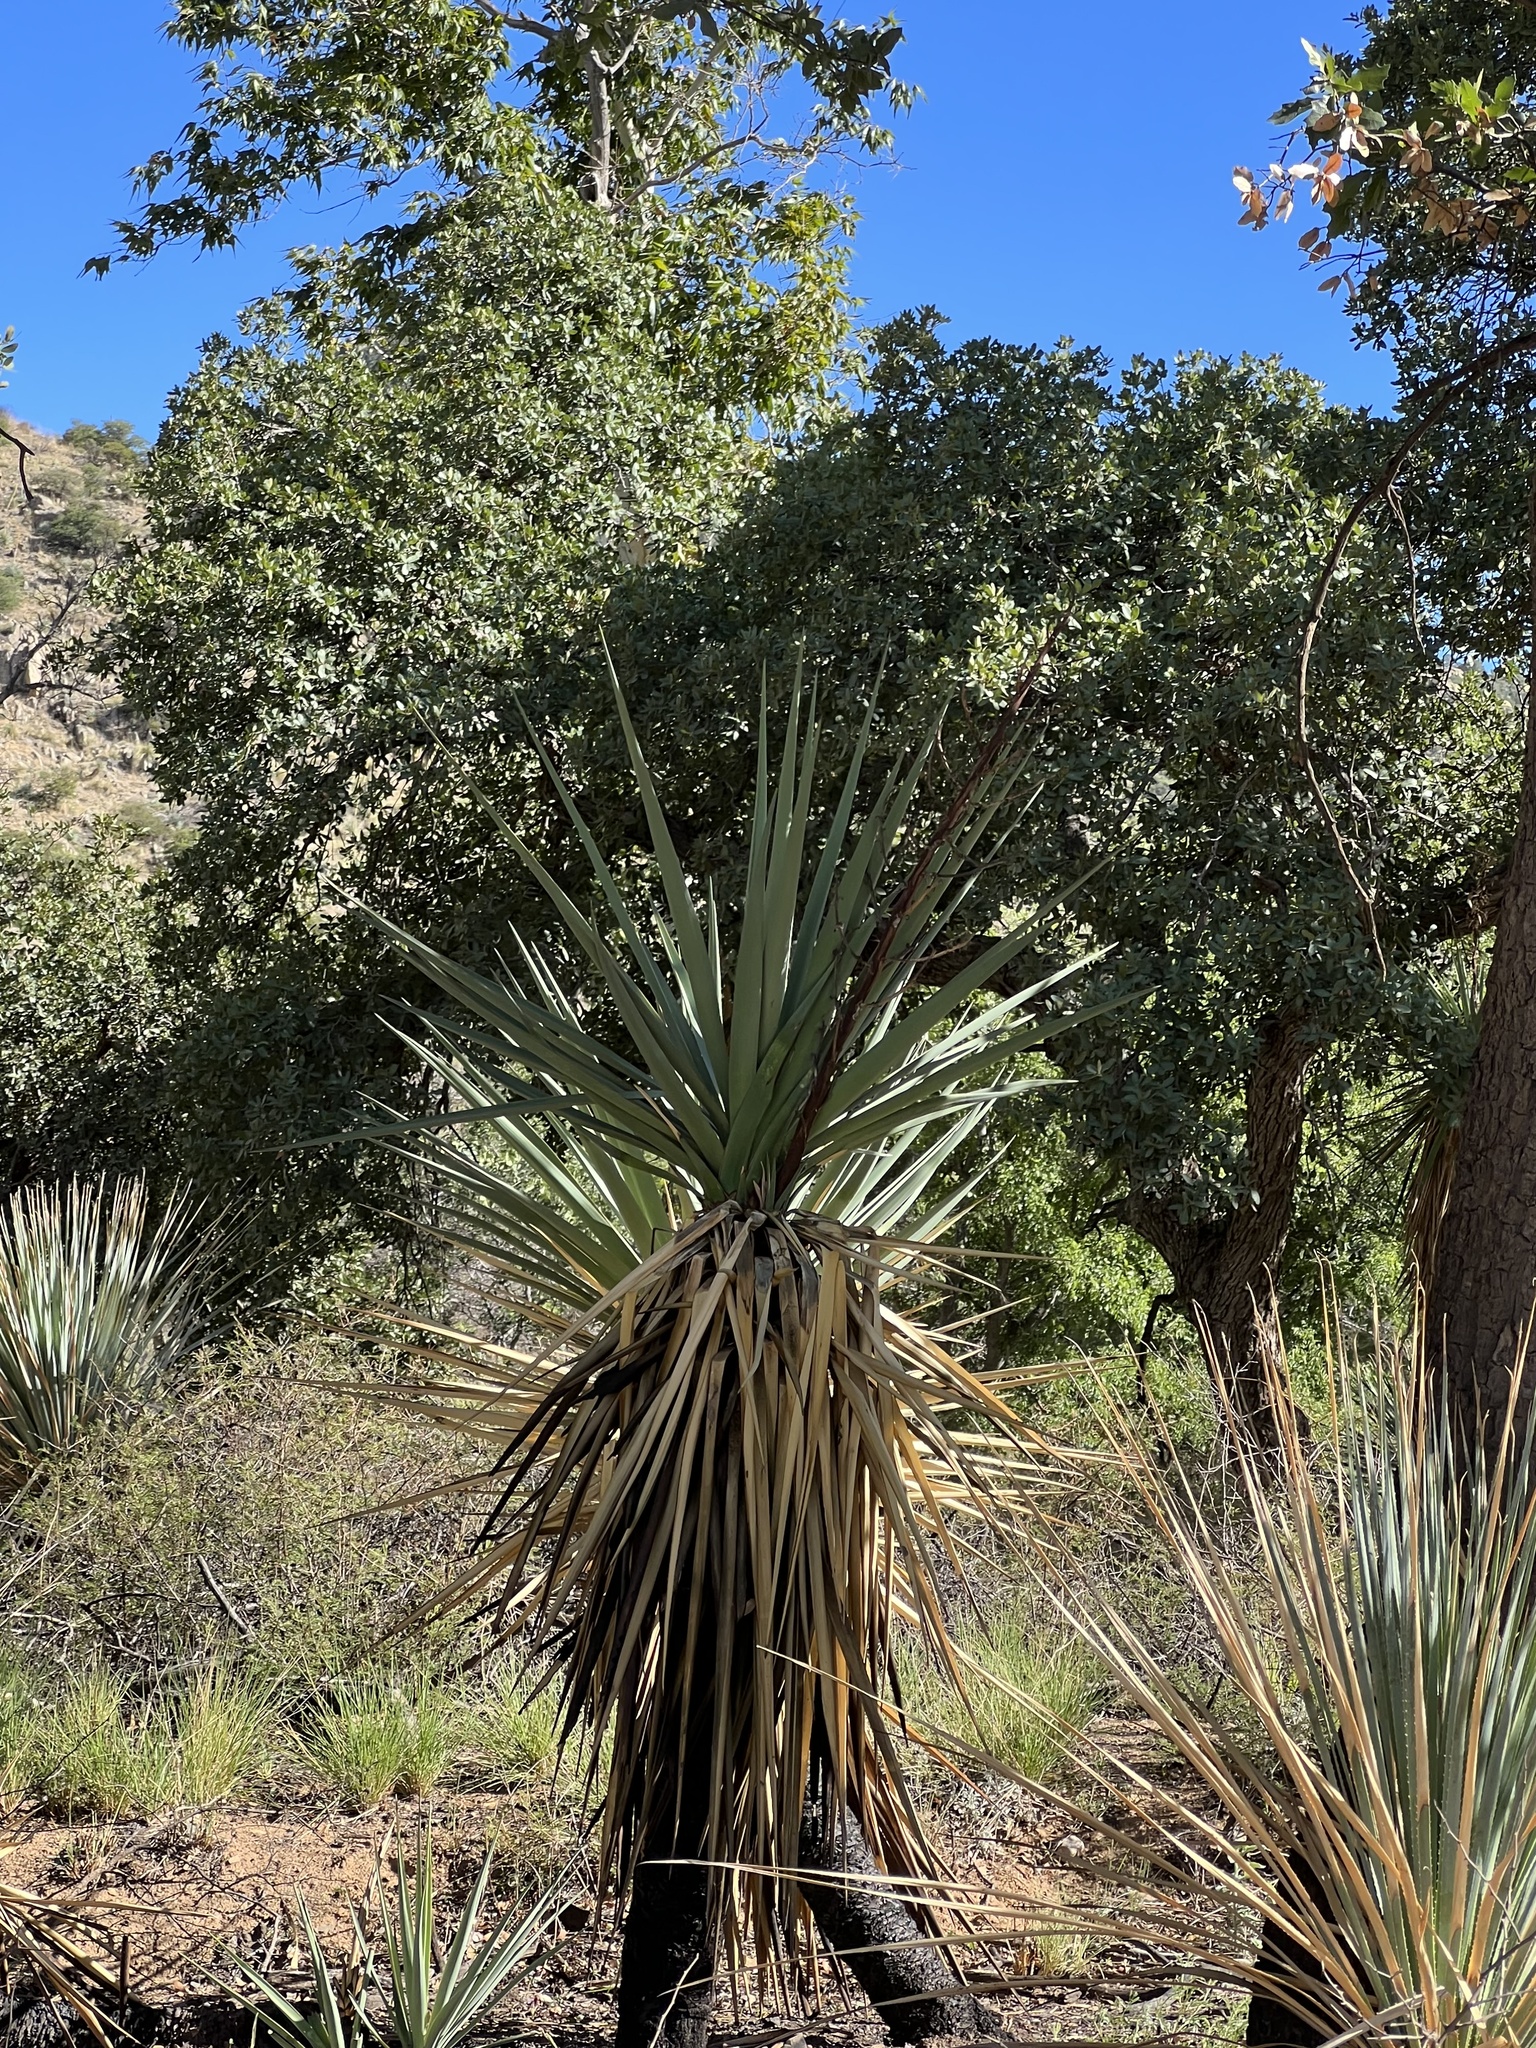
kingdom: Plantae
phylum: Tracheophyta
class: Liliopsida
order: Asparagales
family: Asparagaceae
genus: Yucca
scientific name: Yucca schottii
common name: Hoary yucca
